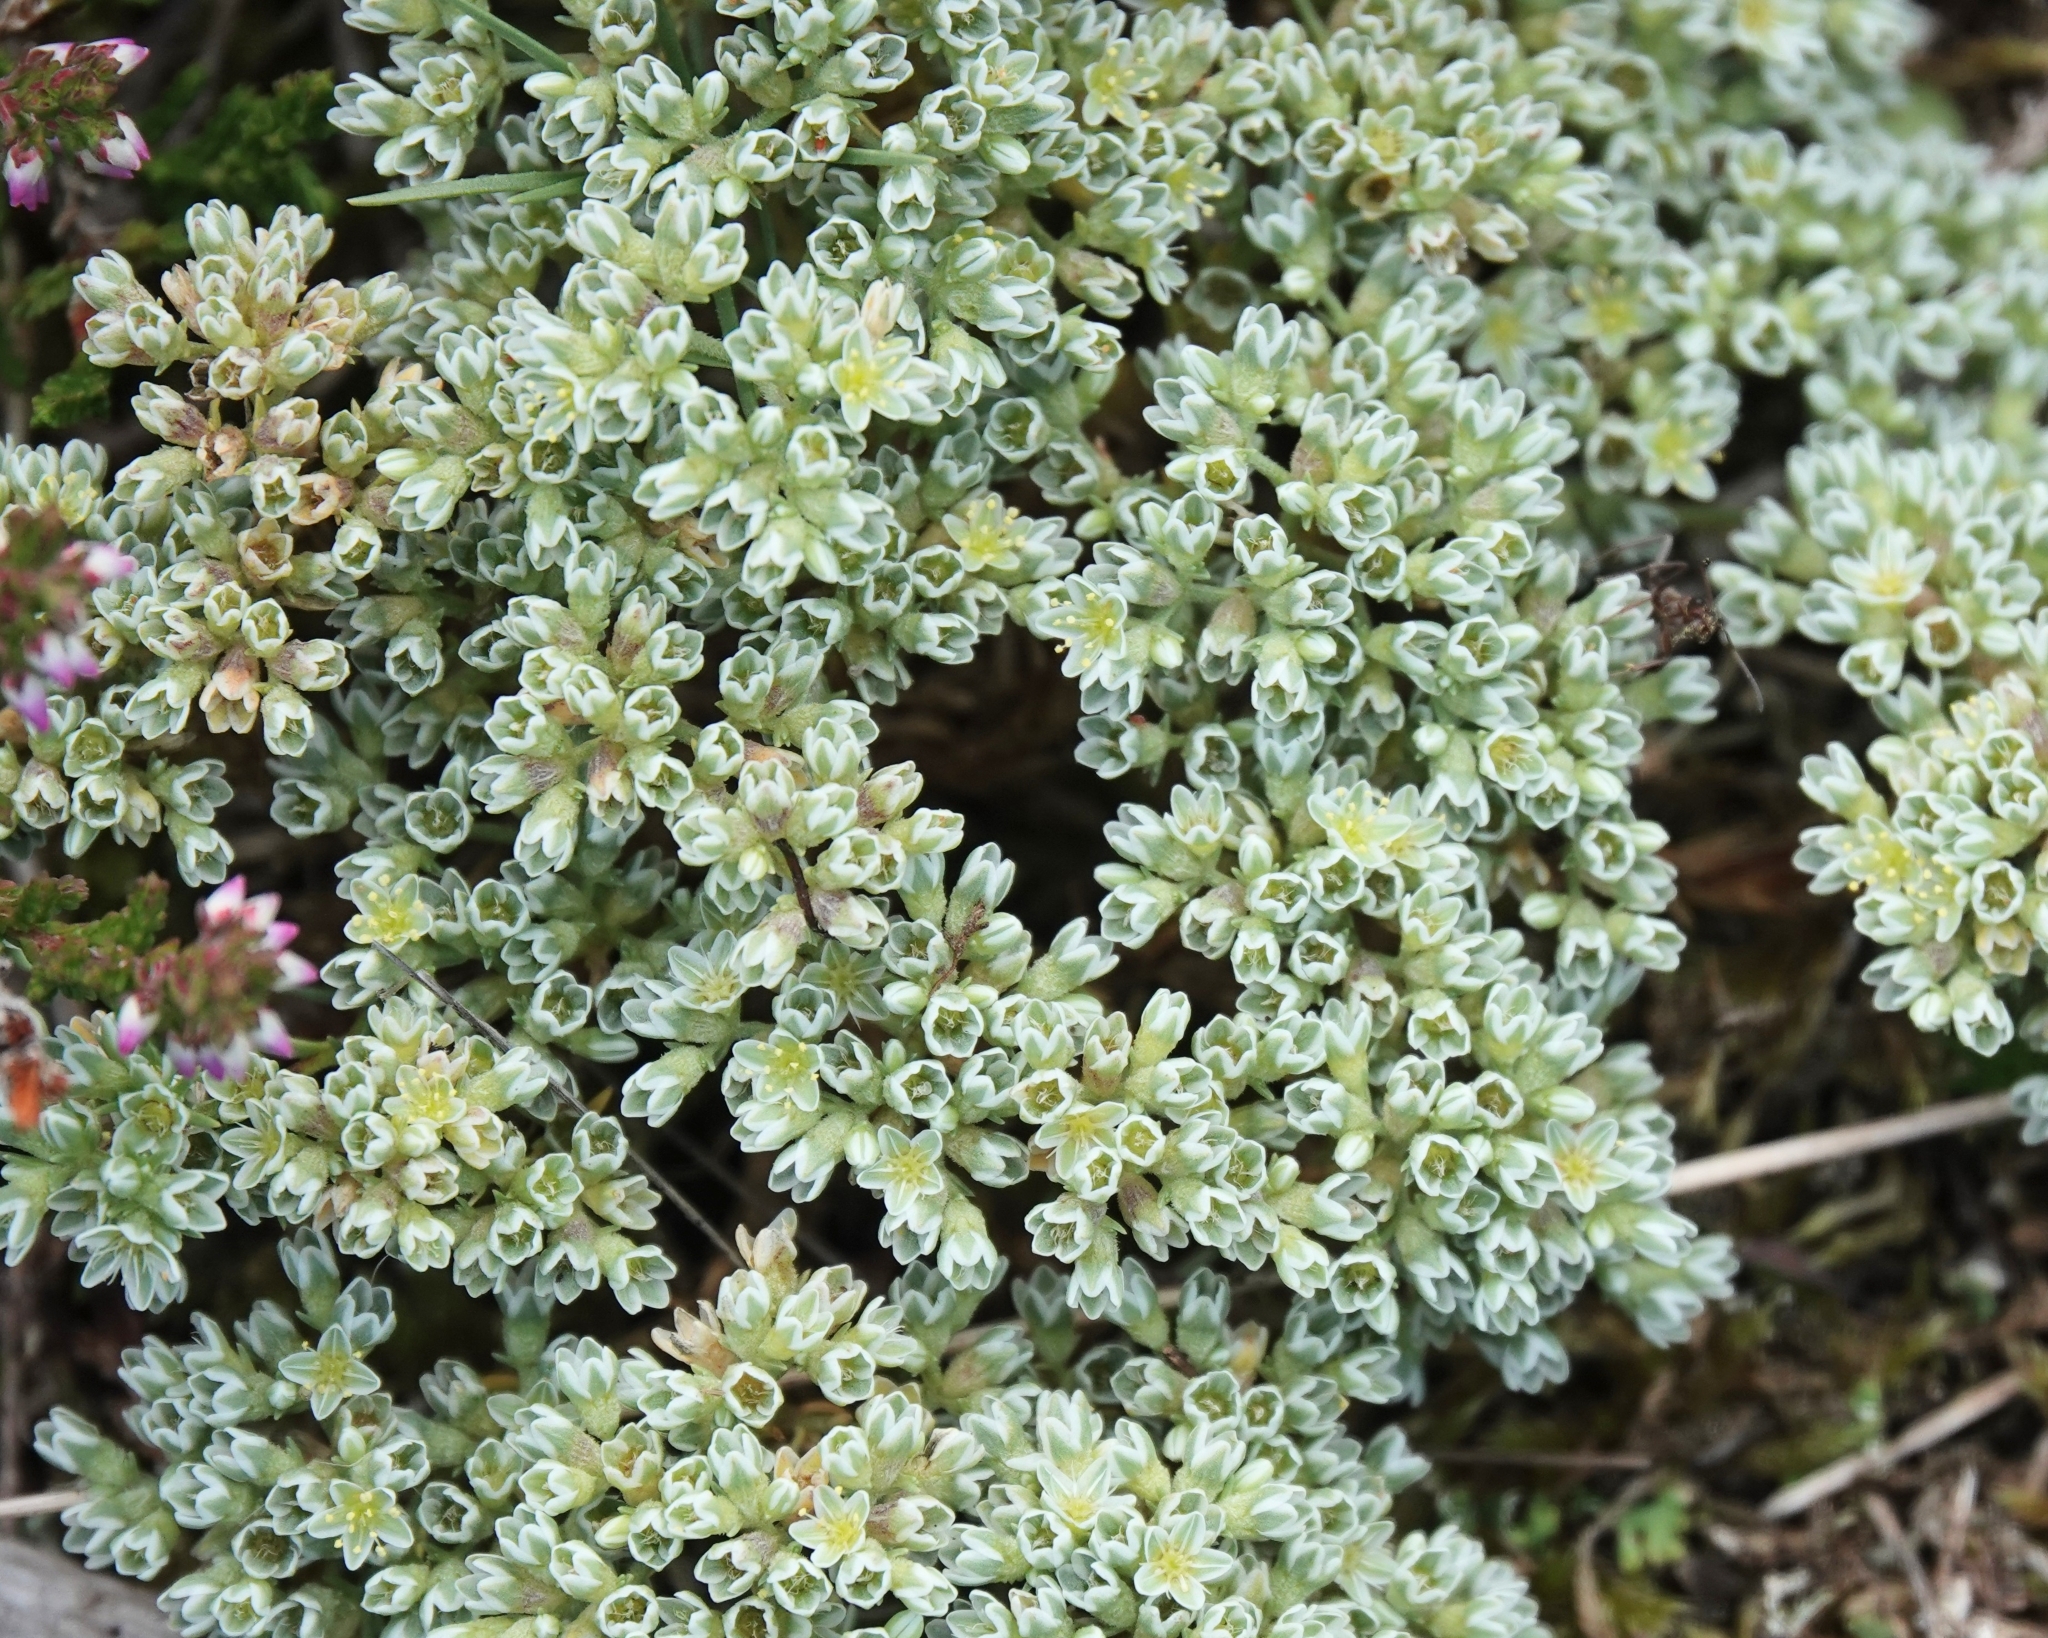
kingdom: Plantae
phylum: Tracheophyta
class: Magnoliopsida
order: Caryophyllales
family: Caryophyllaceae
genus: Scleranthus
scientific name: Scleranthus perennis
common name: Perennial knawel
